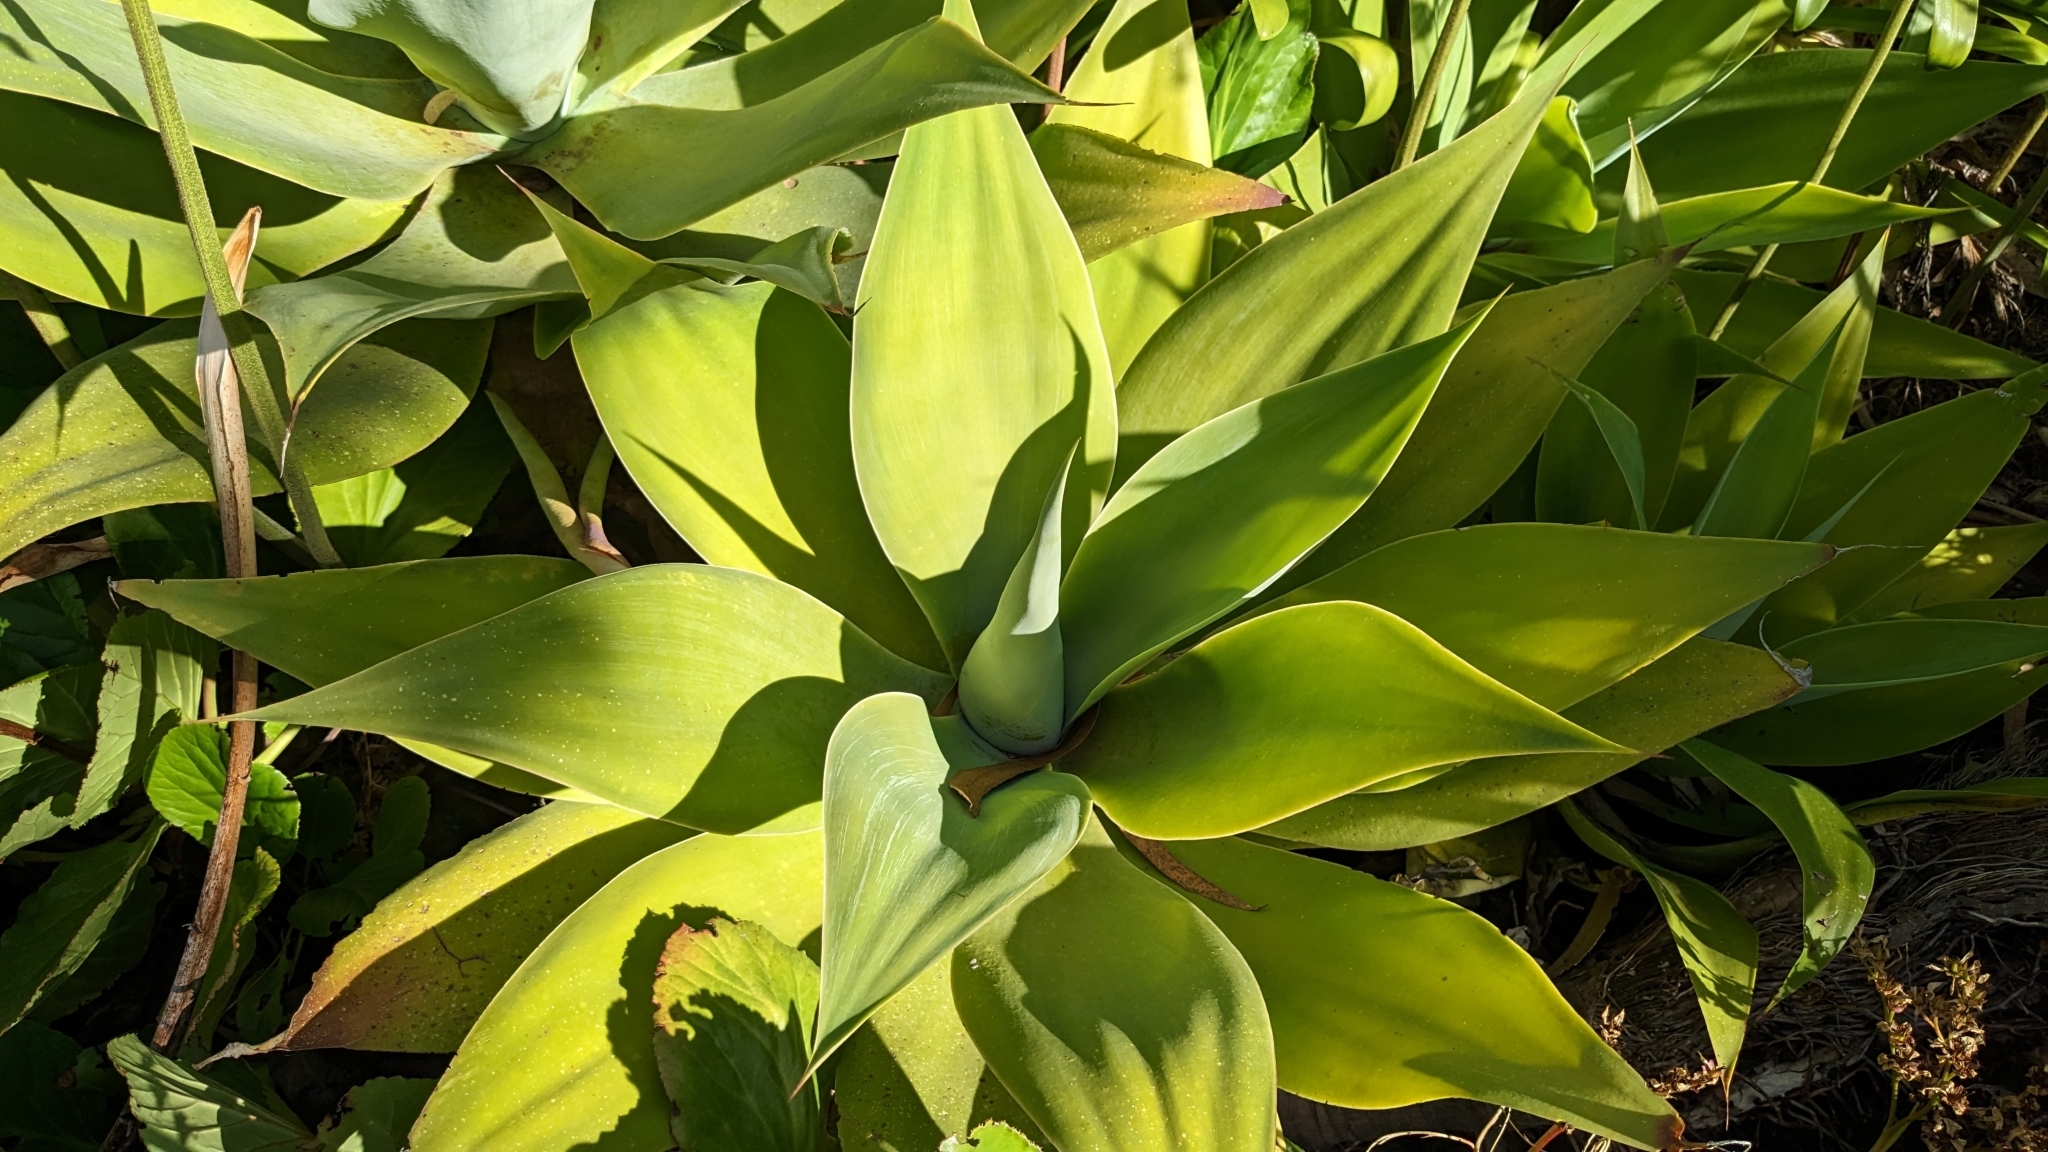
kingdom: Plantae
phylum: Tracheophyta
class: Liliopsida
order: Asparagales
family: Asparagaceae
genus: Agave
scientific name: Agave attenuata
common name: Fox tail agave
